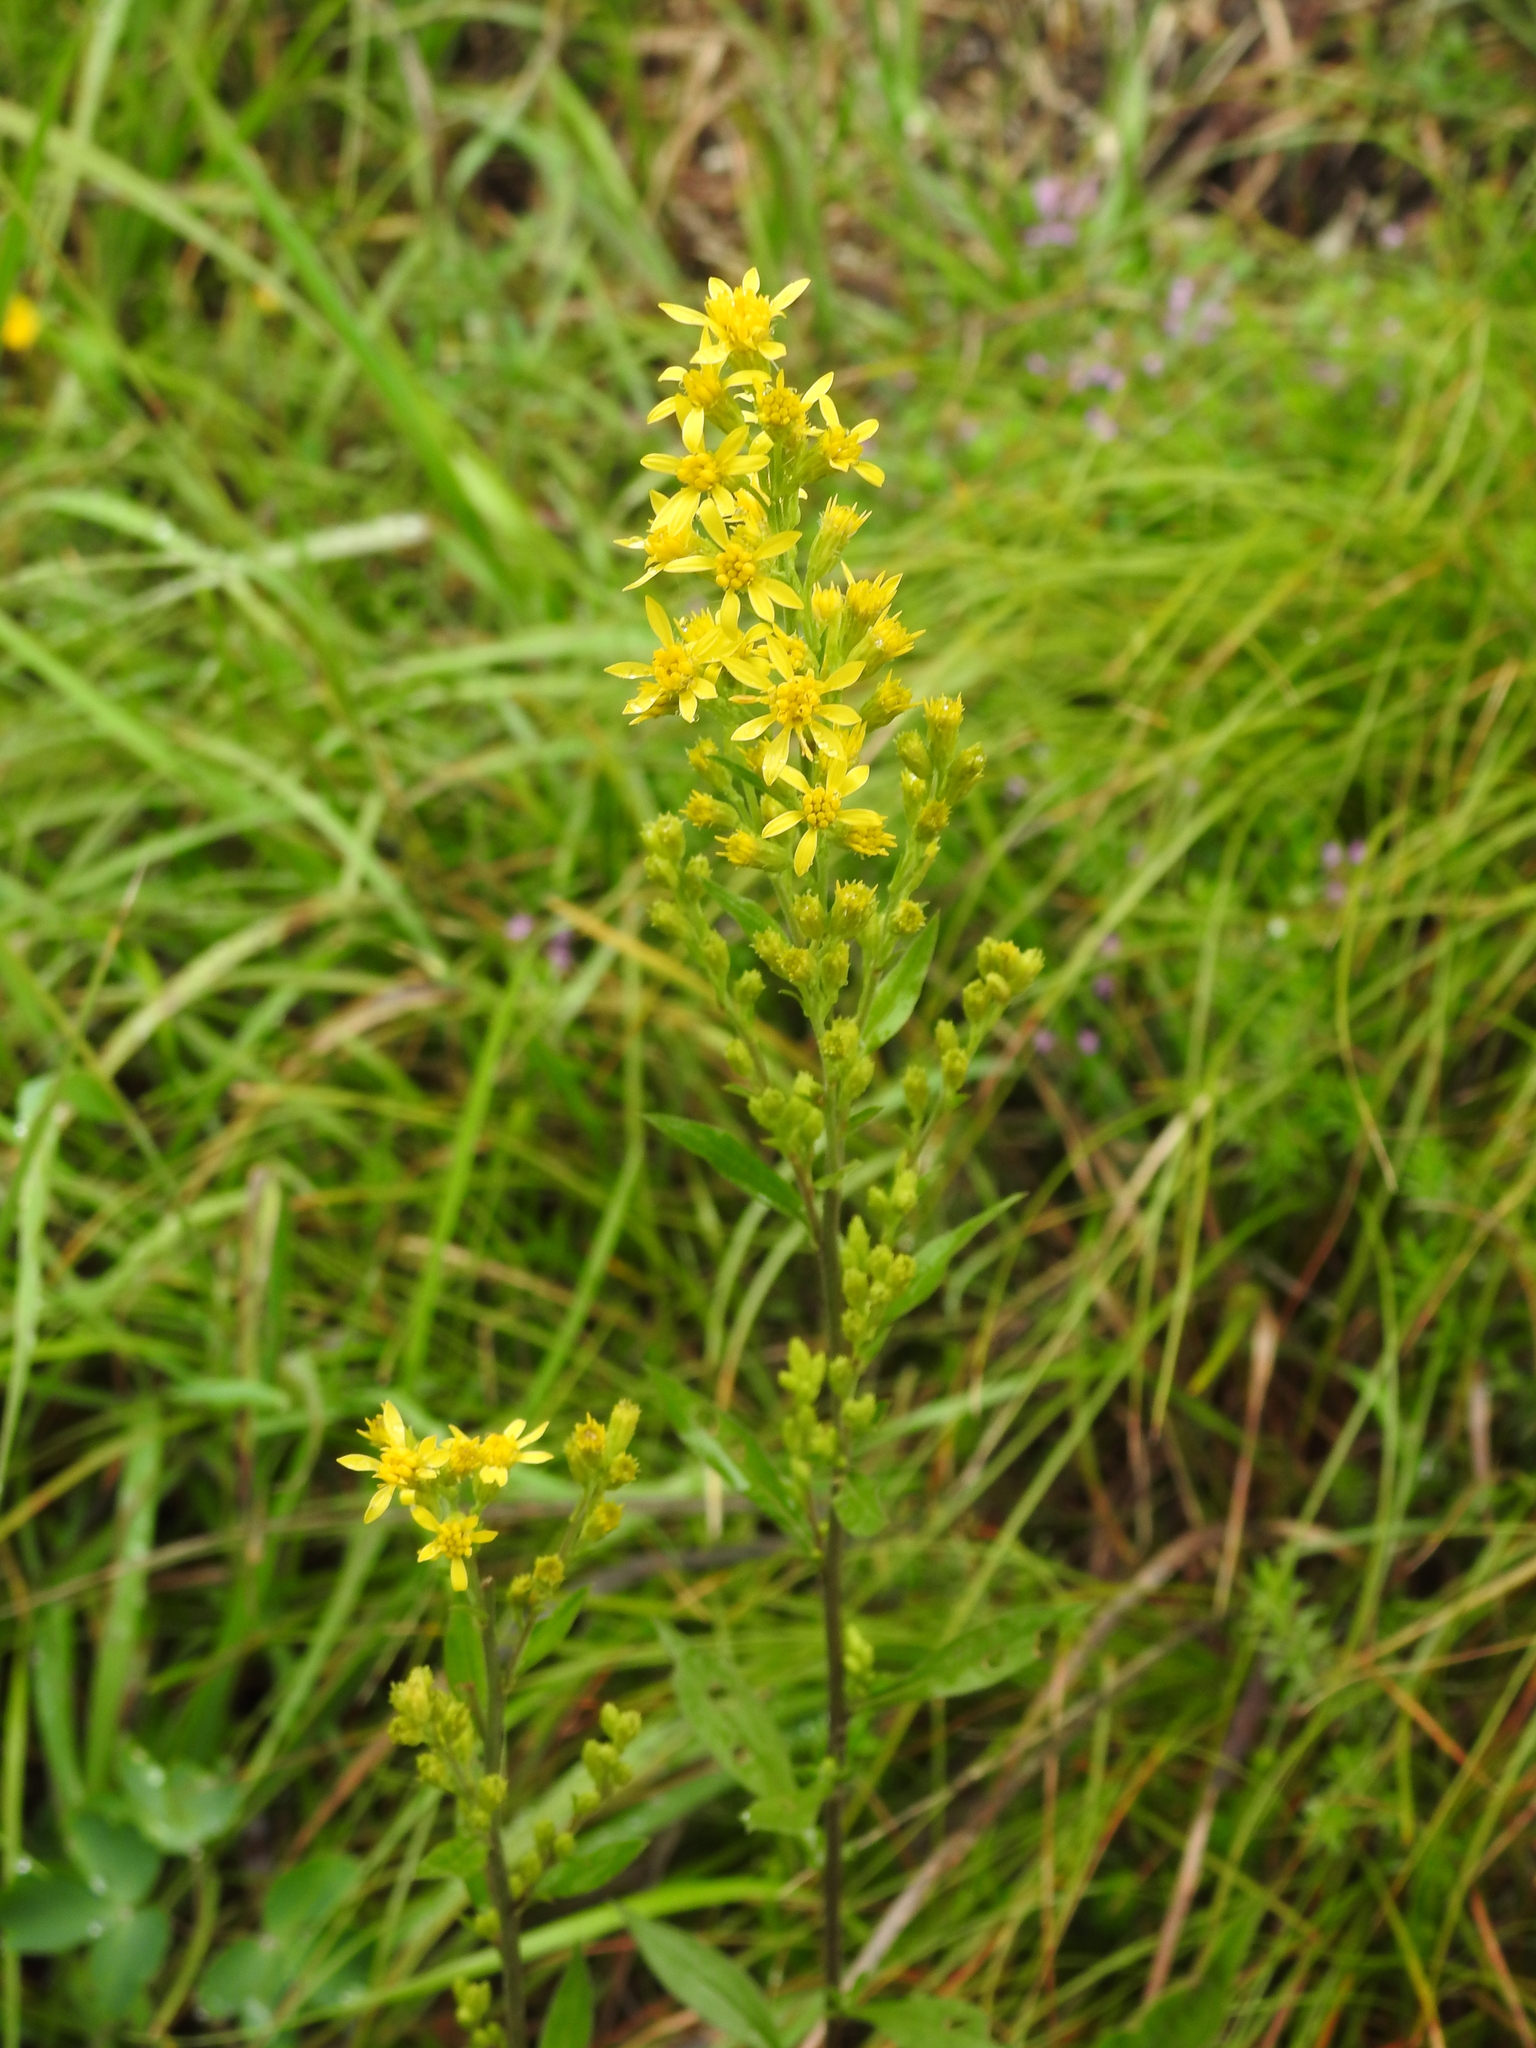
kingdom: Plantae
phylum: Tracheophyta
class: Magnoliopsida
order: Asterales
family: Asteraceae
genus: Solidago
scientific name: Solidago virgaurea
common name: Goldenrod
